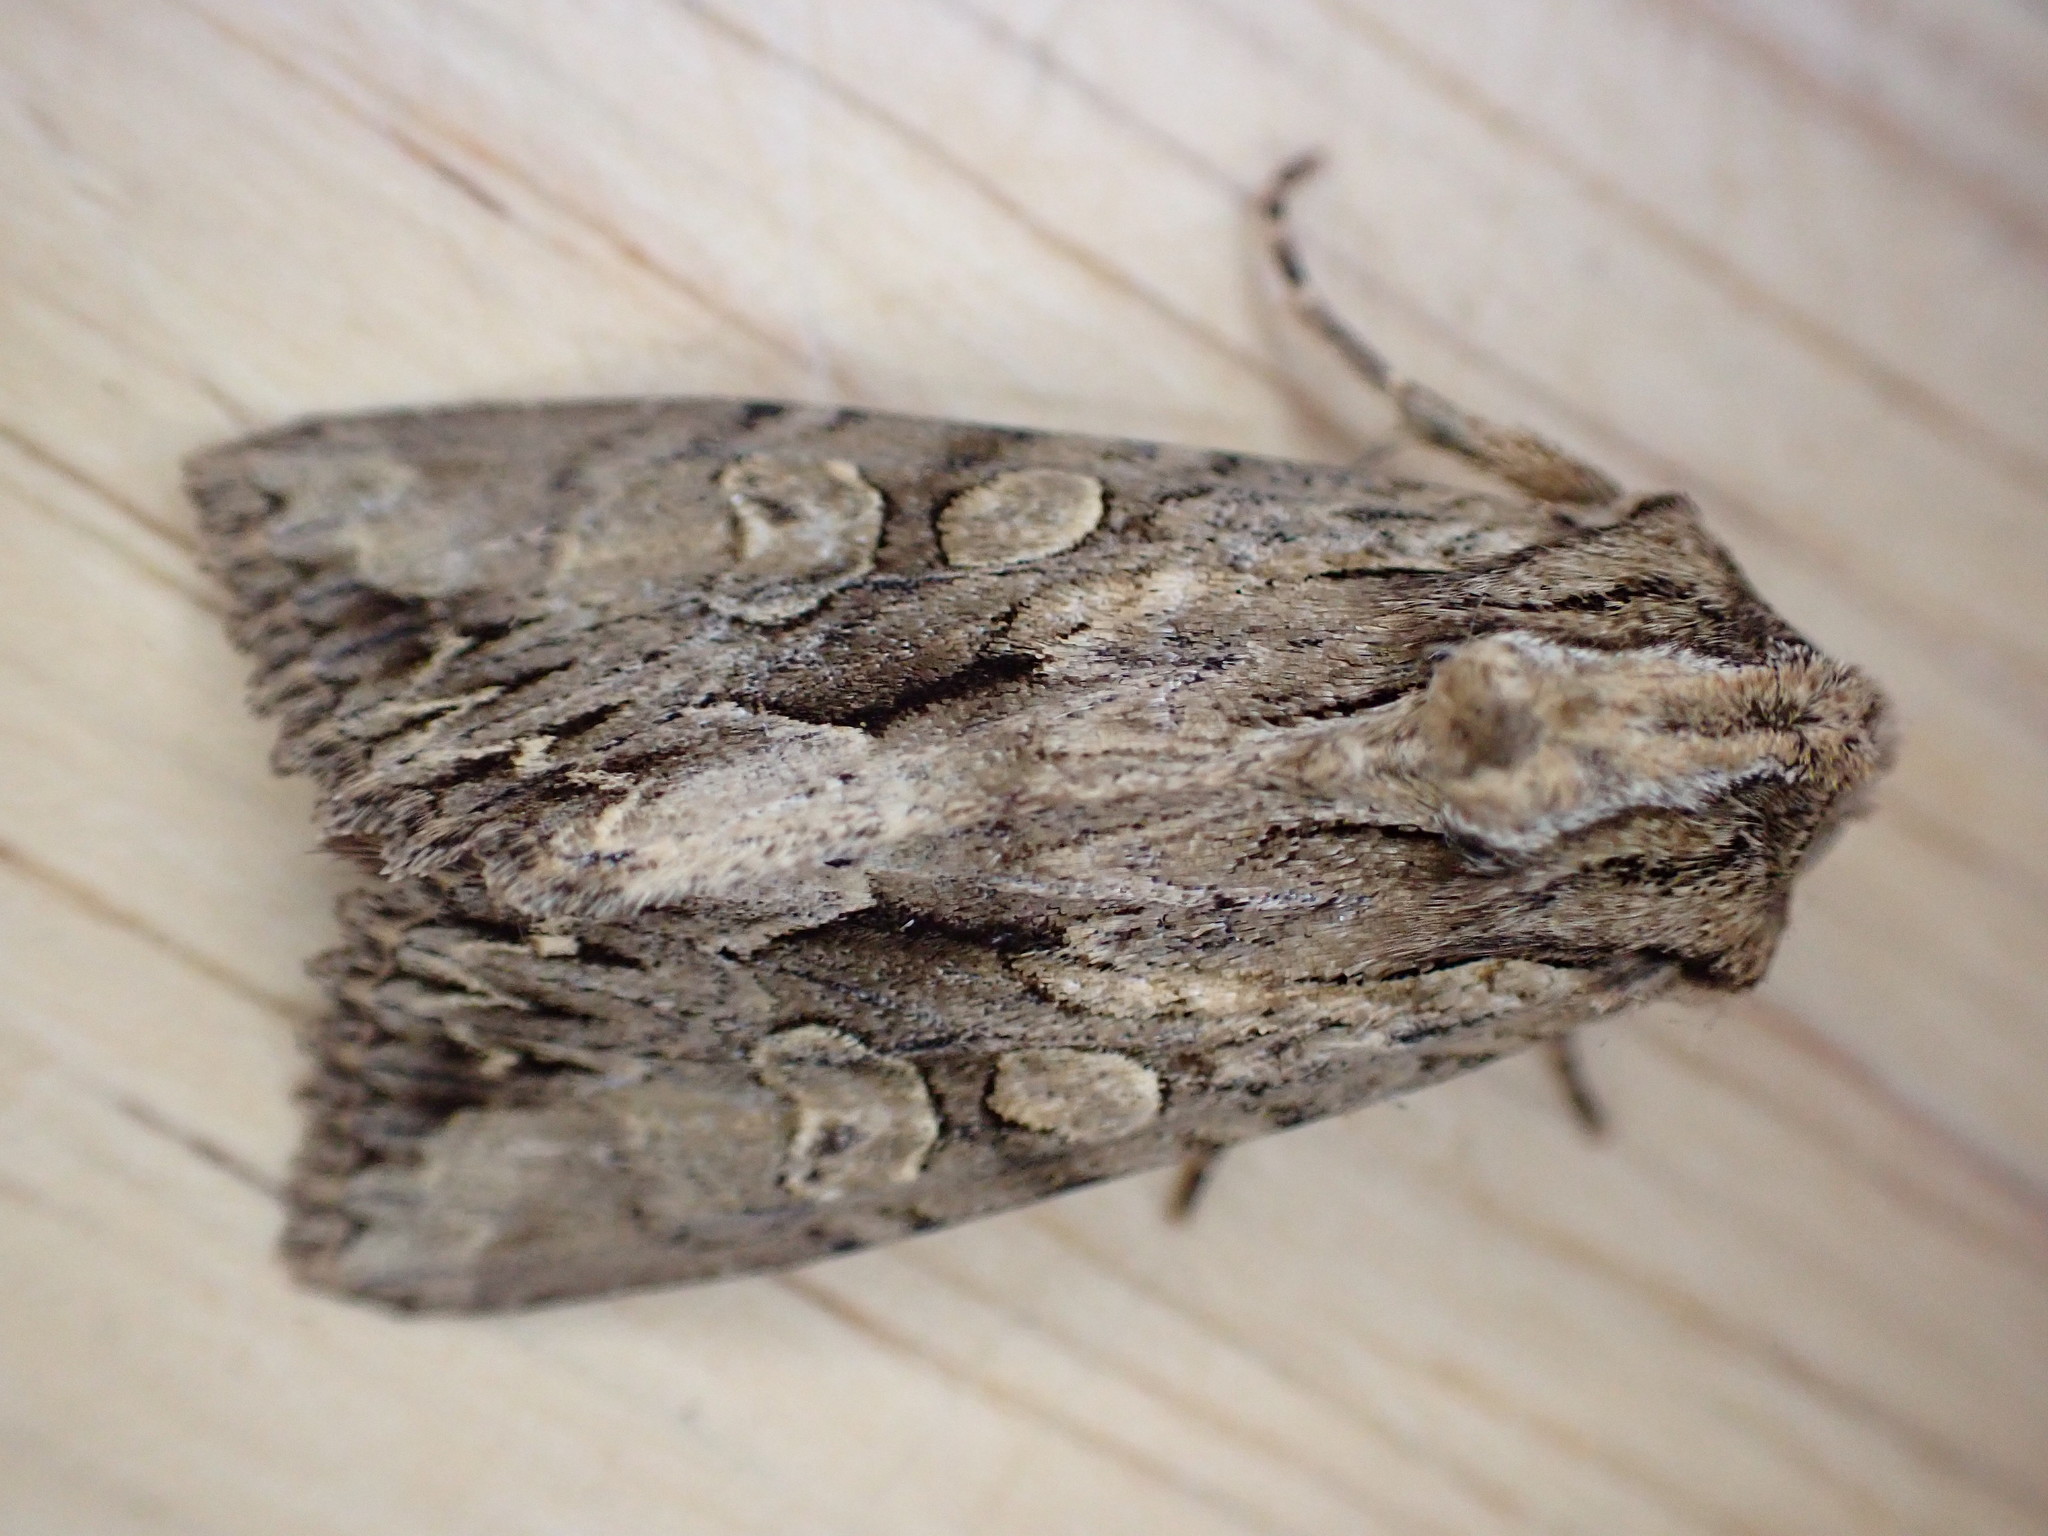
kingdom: Animalia
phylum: Arthropoda
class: Insecta
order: Lepidoptera
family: Noctuidae
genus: Apamea
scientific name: Apamea monoglypha
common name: Dark arches
